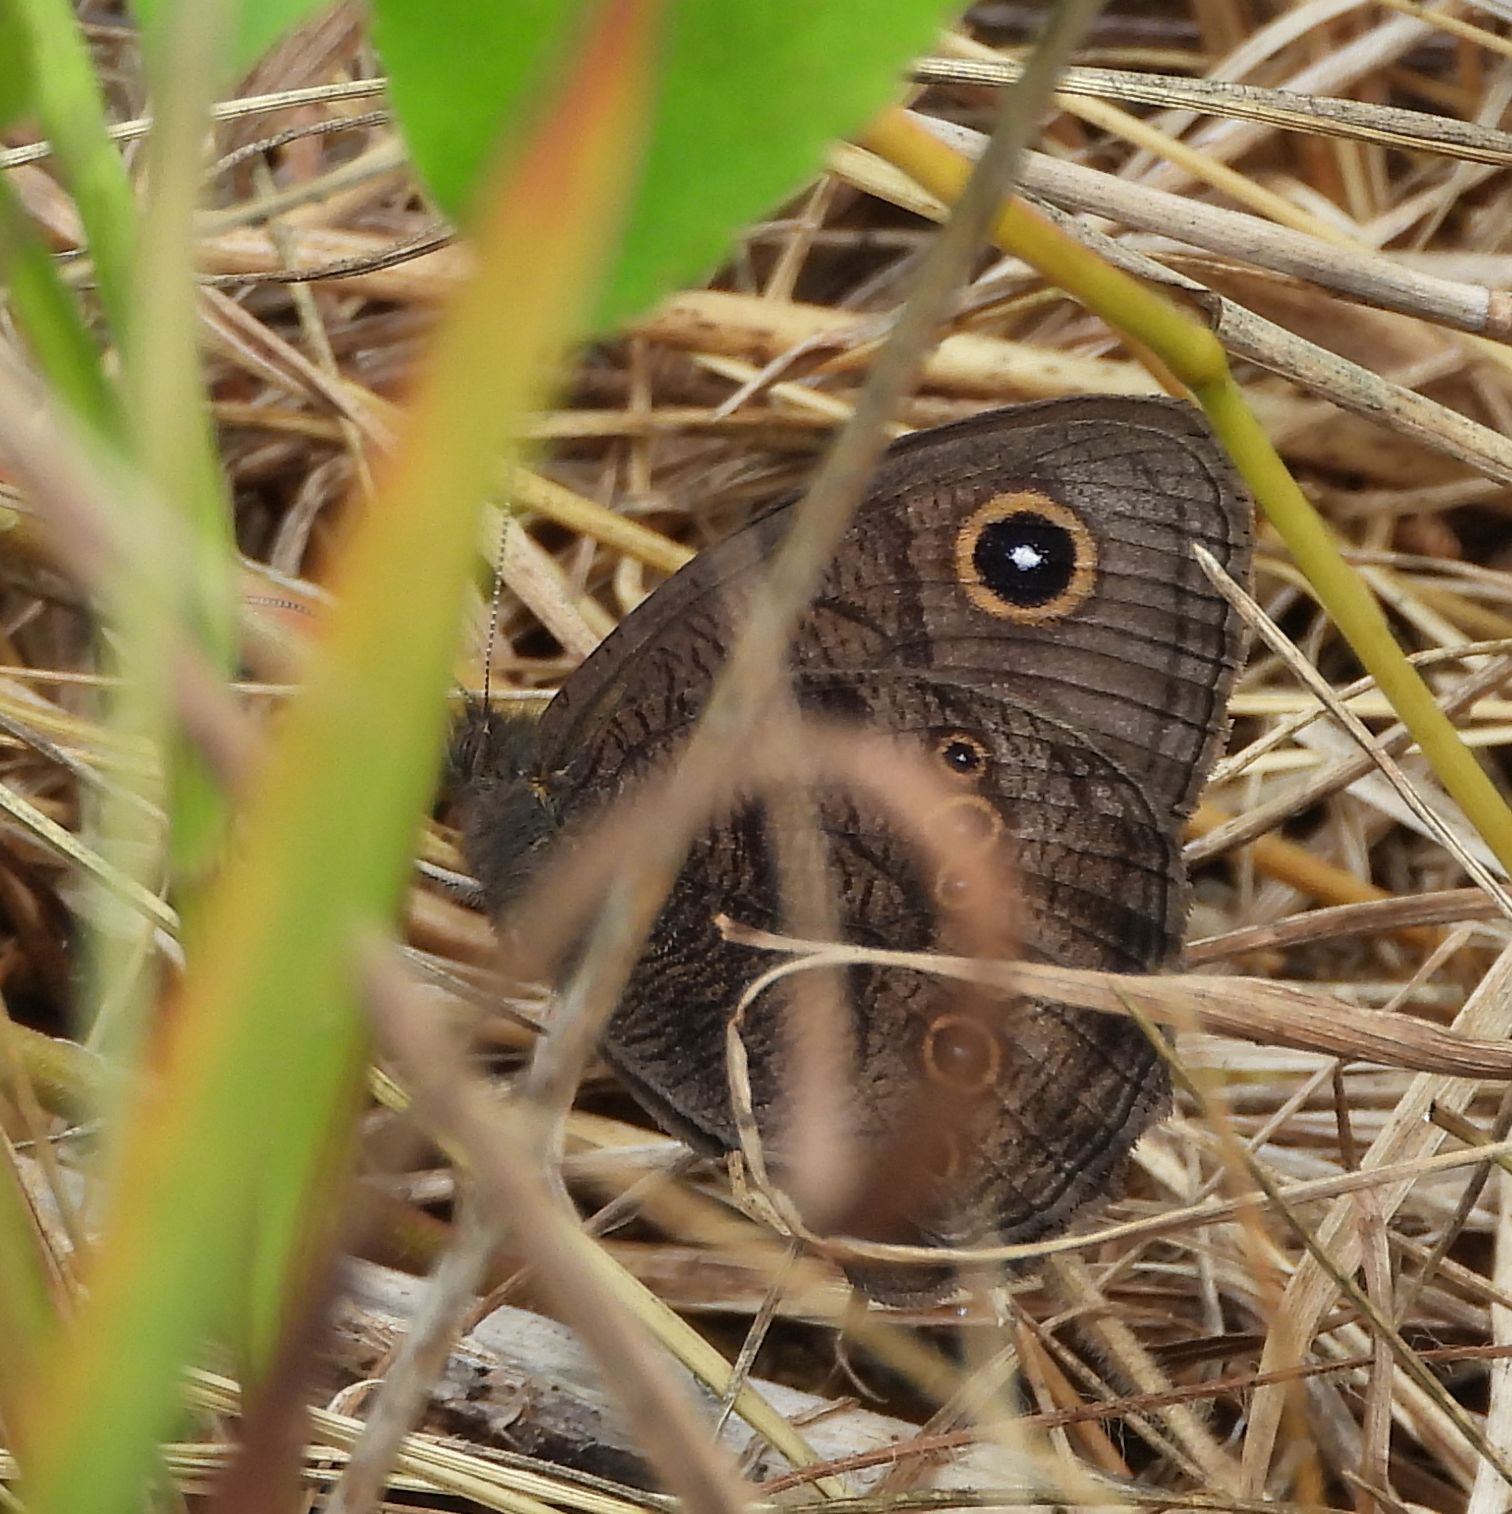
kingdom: Animalia
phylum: Arthropoda
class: Insecta
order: Lepidoptera
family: Nymphalidae
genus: Cercyonis
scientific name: Cercyonis pegala
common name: Common wood-nymph
